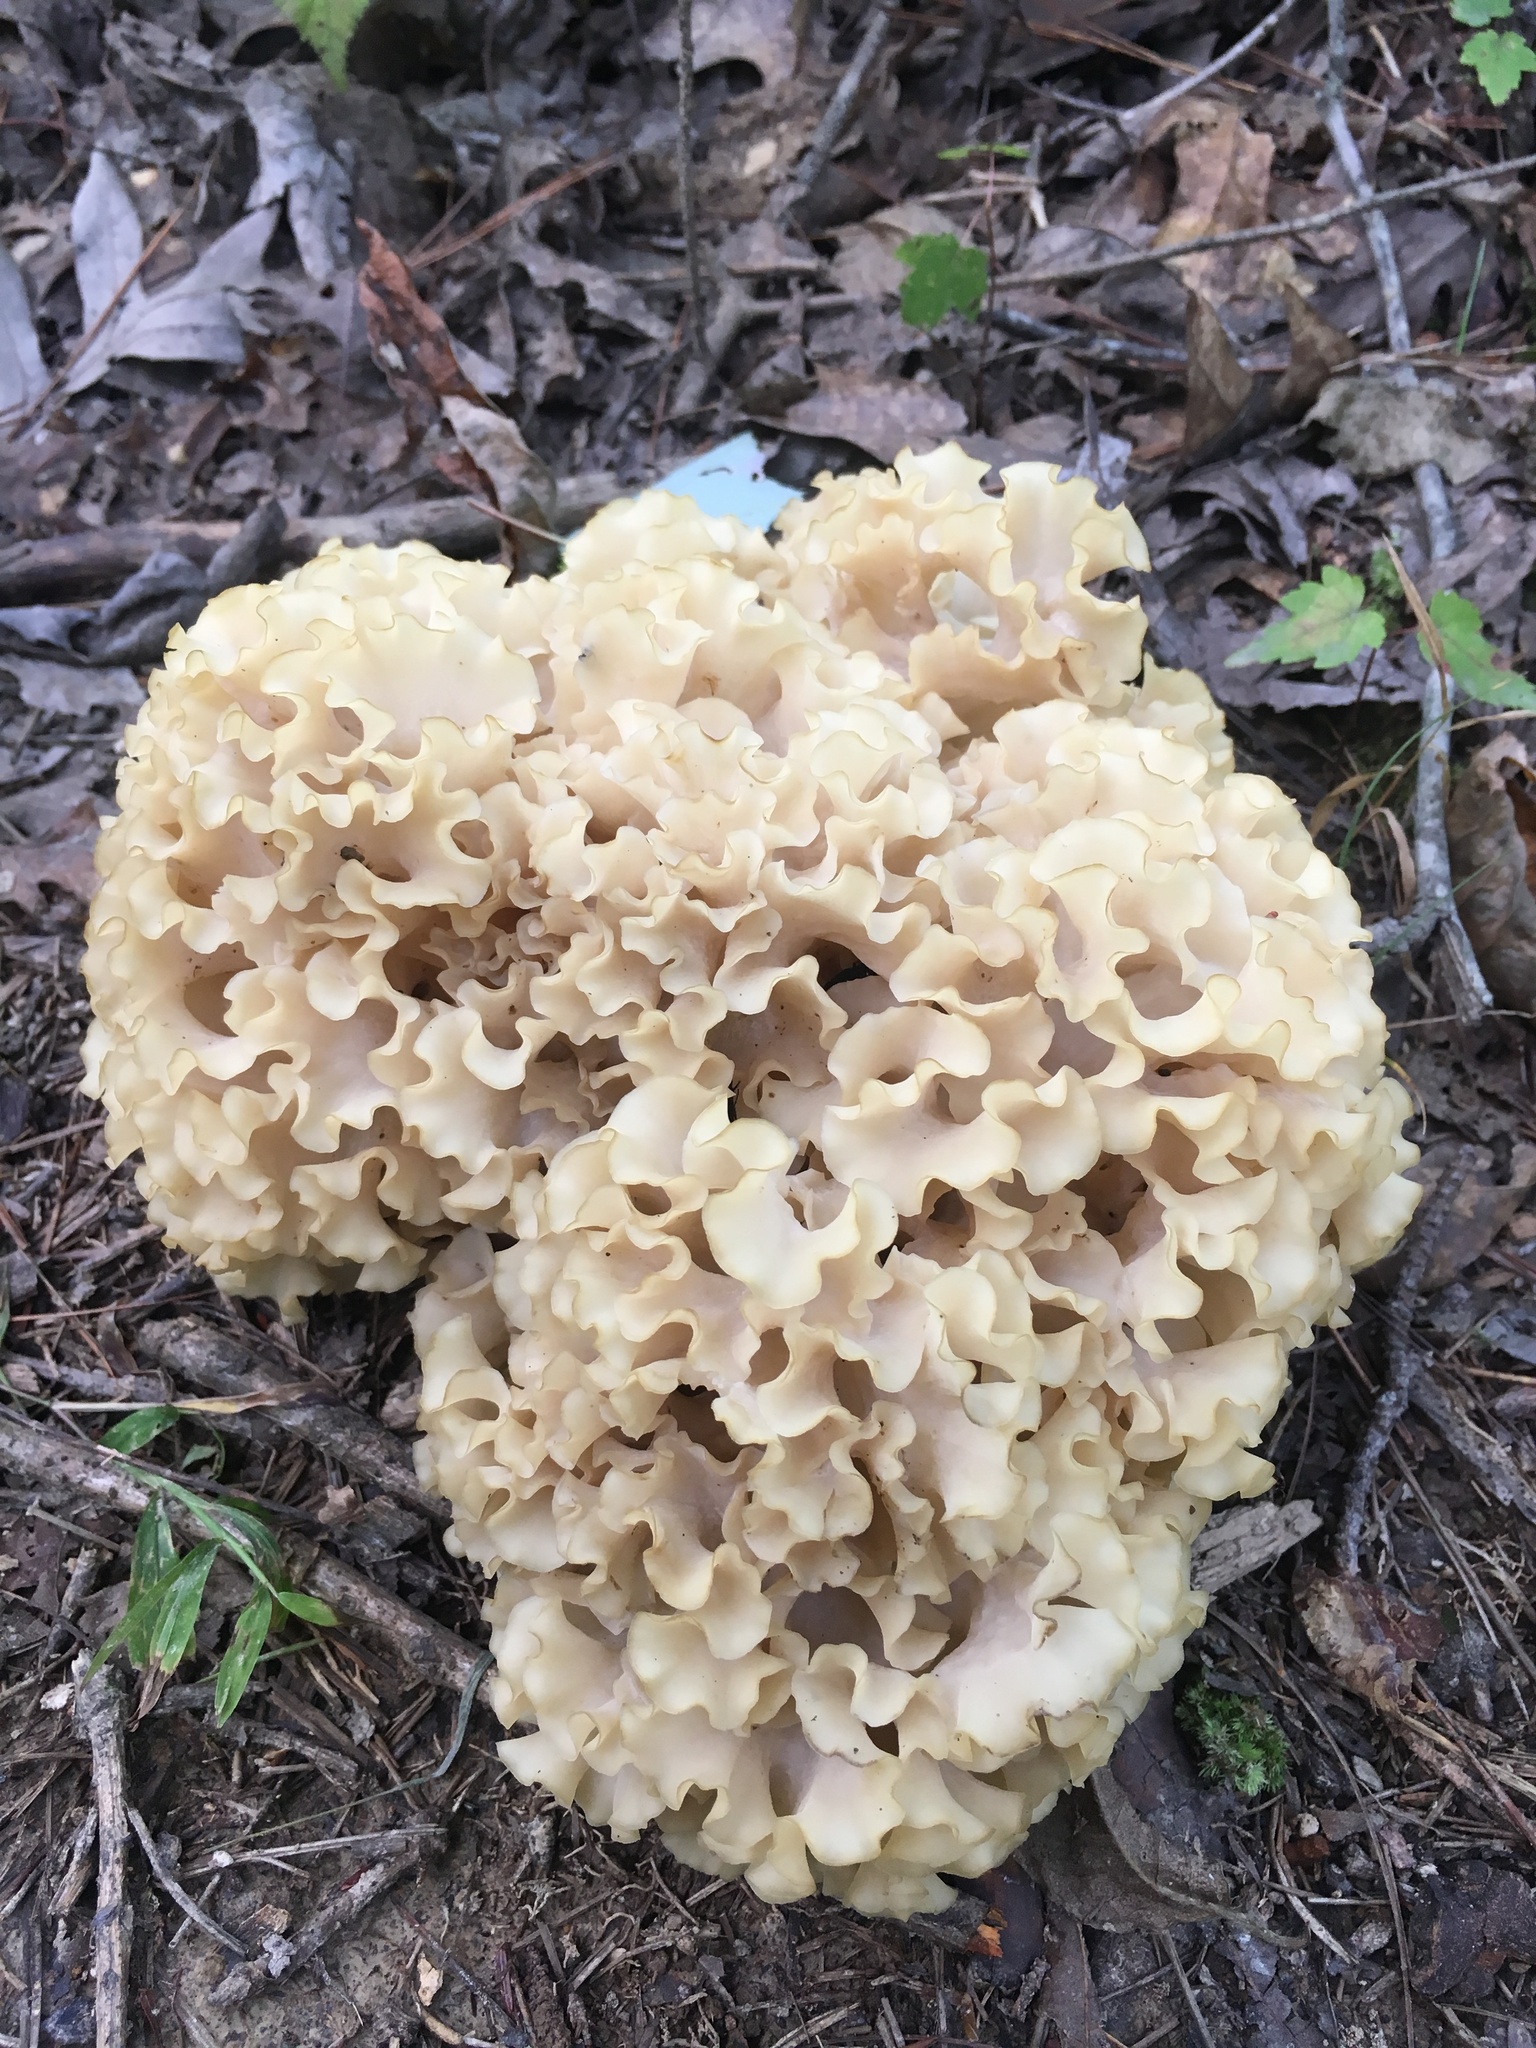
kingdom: Fungi
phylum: Basidiomycota
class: Agaricomycetes
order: Polyporales
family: Sparassidaceae
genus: Sparassis
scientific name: Sparassis americana
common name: American cauliflower mushroom
